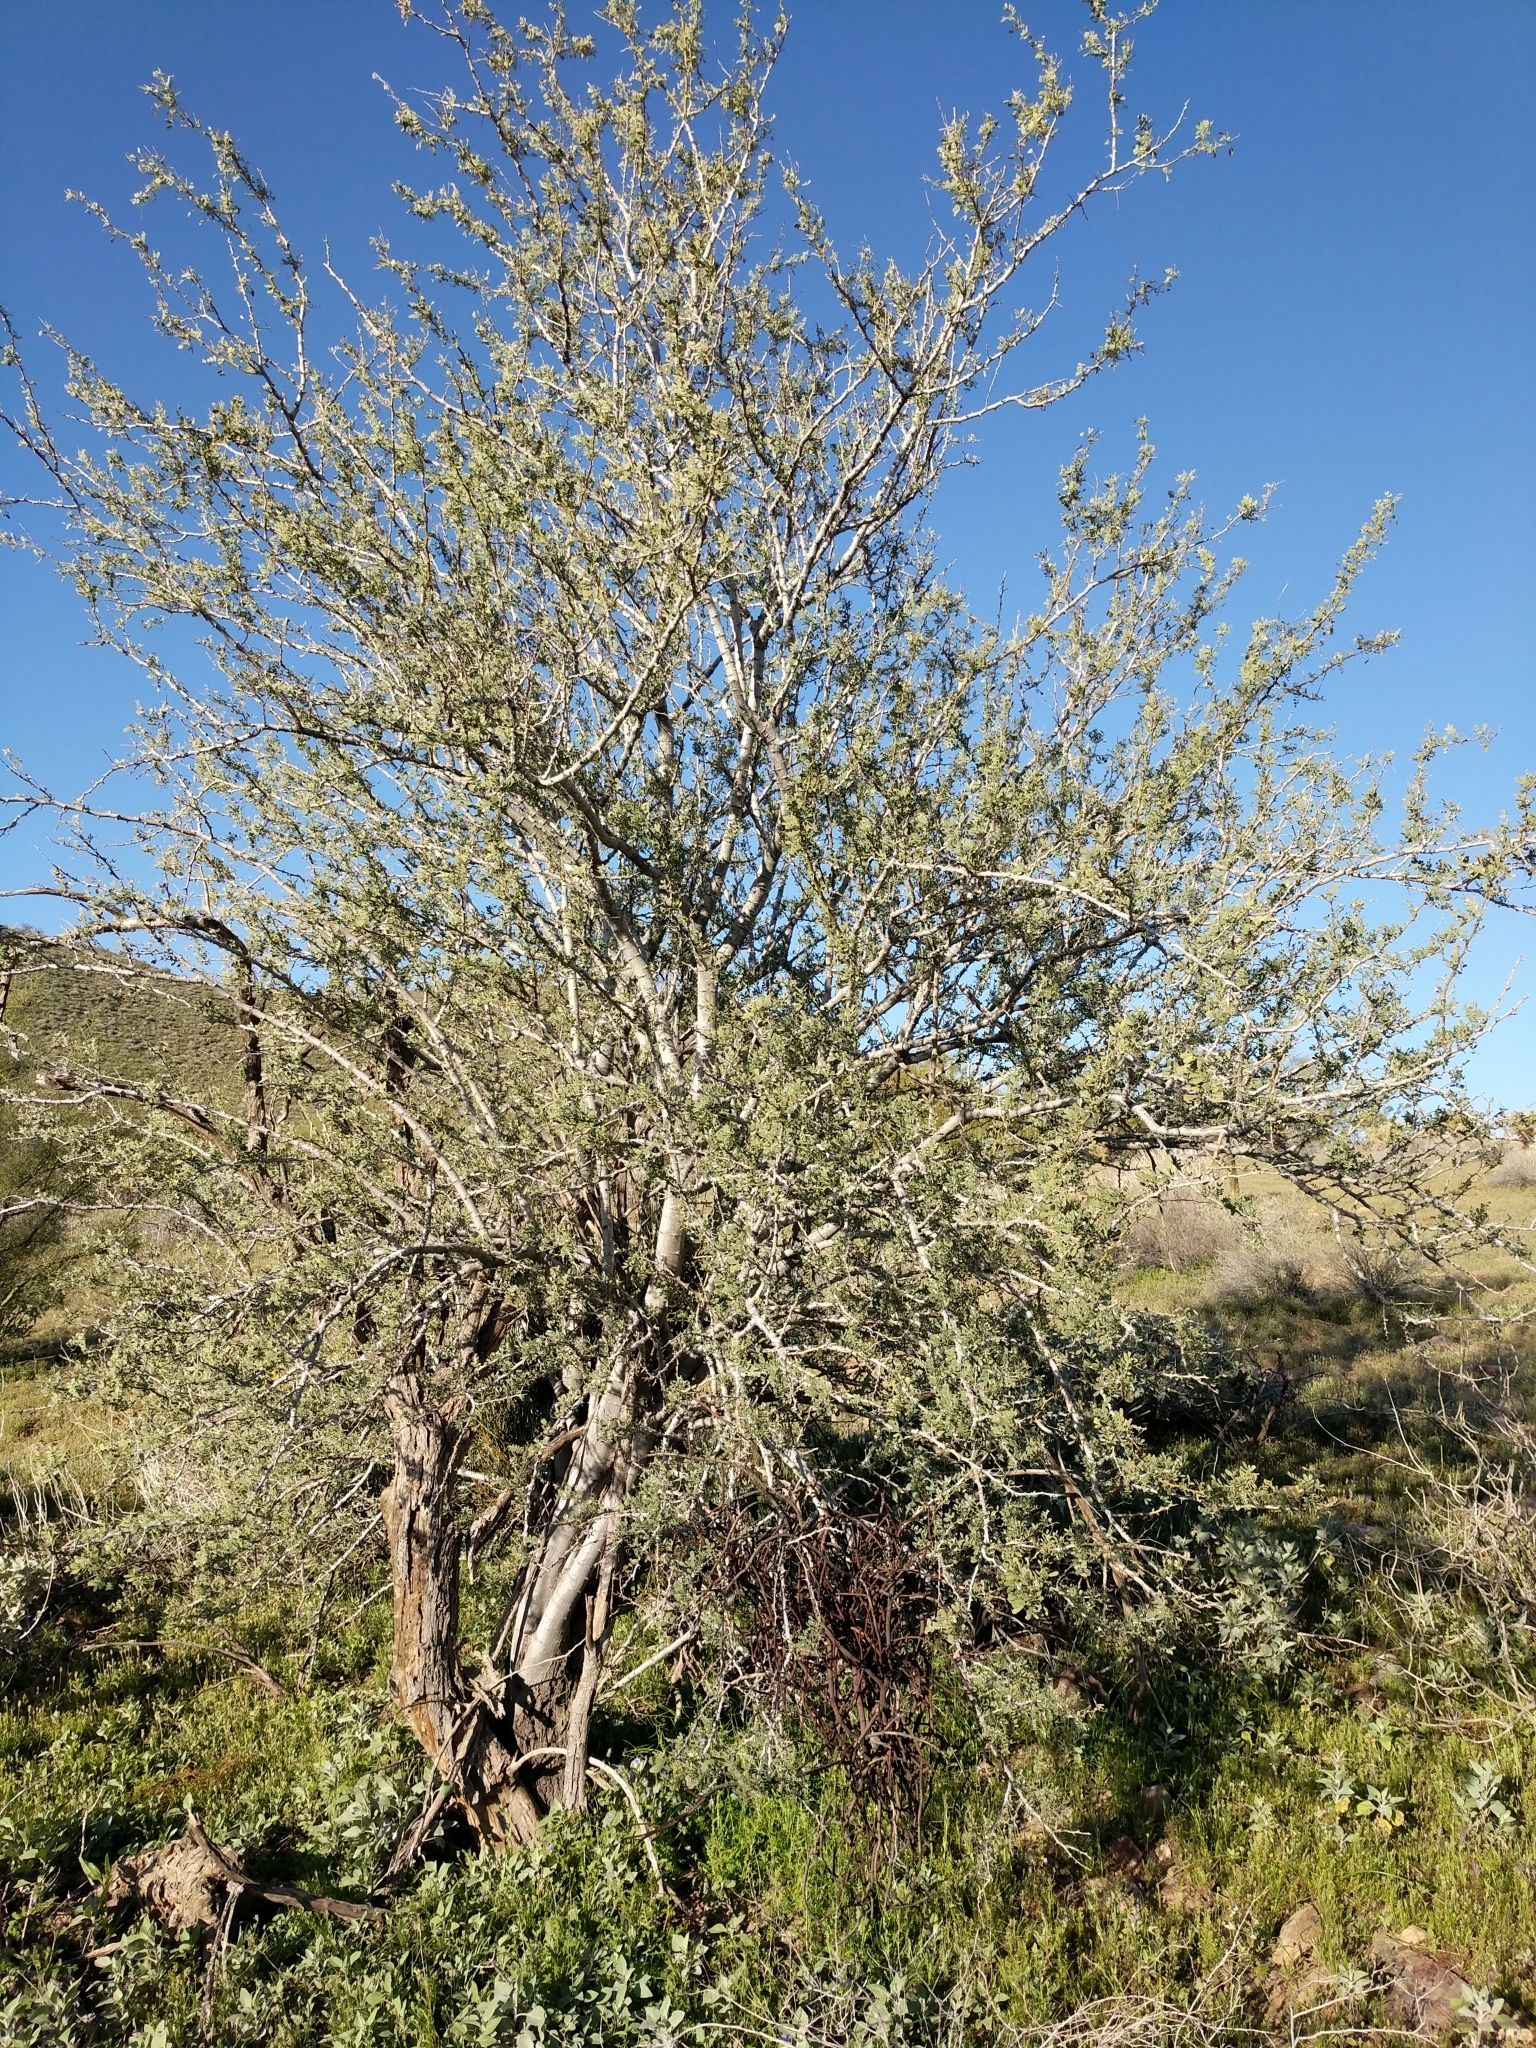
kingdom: Plantae
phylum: Tracheophyta
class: Magnoliopsida
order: Fabales
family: Fabaceae
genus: Olneya
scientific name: Olneya tesota
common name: Desert ironwood
